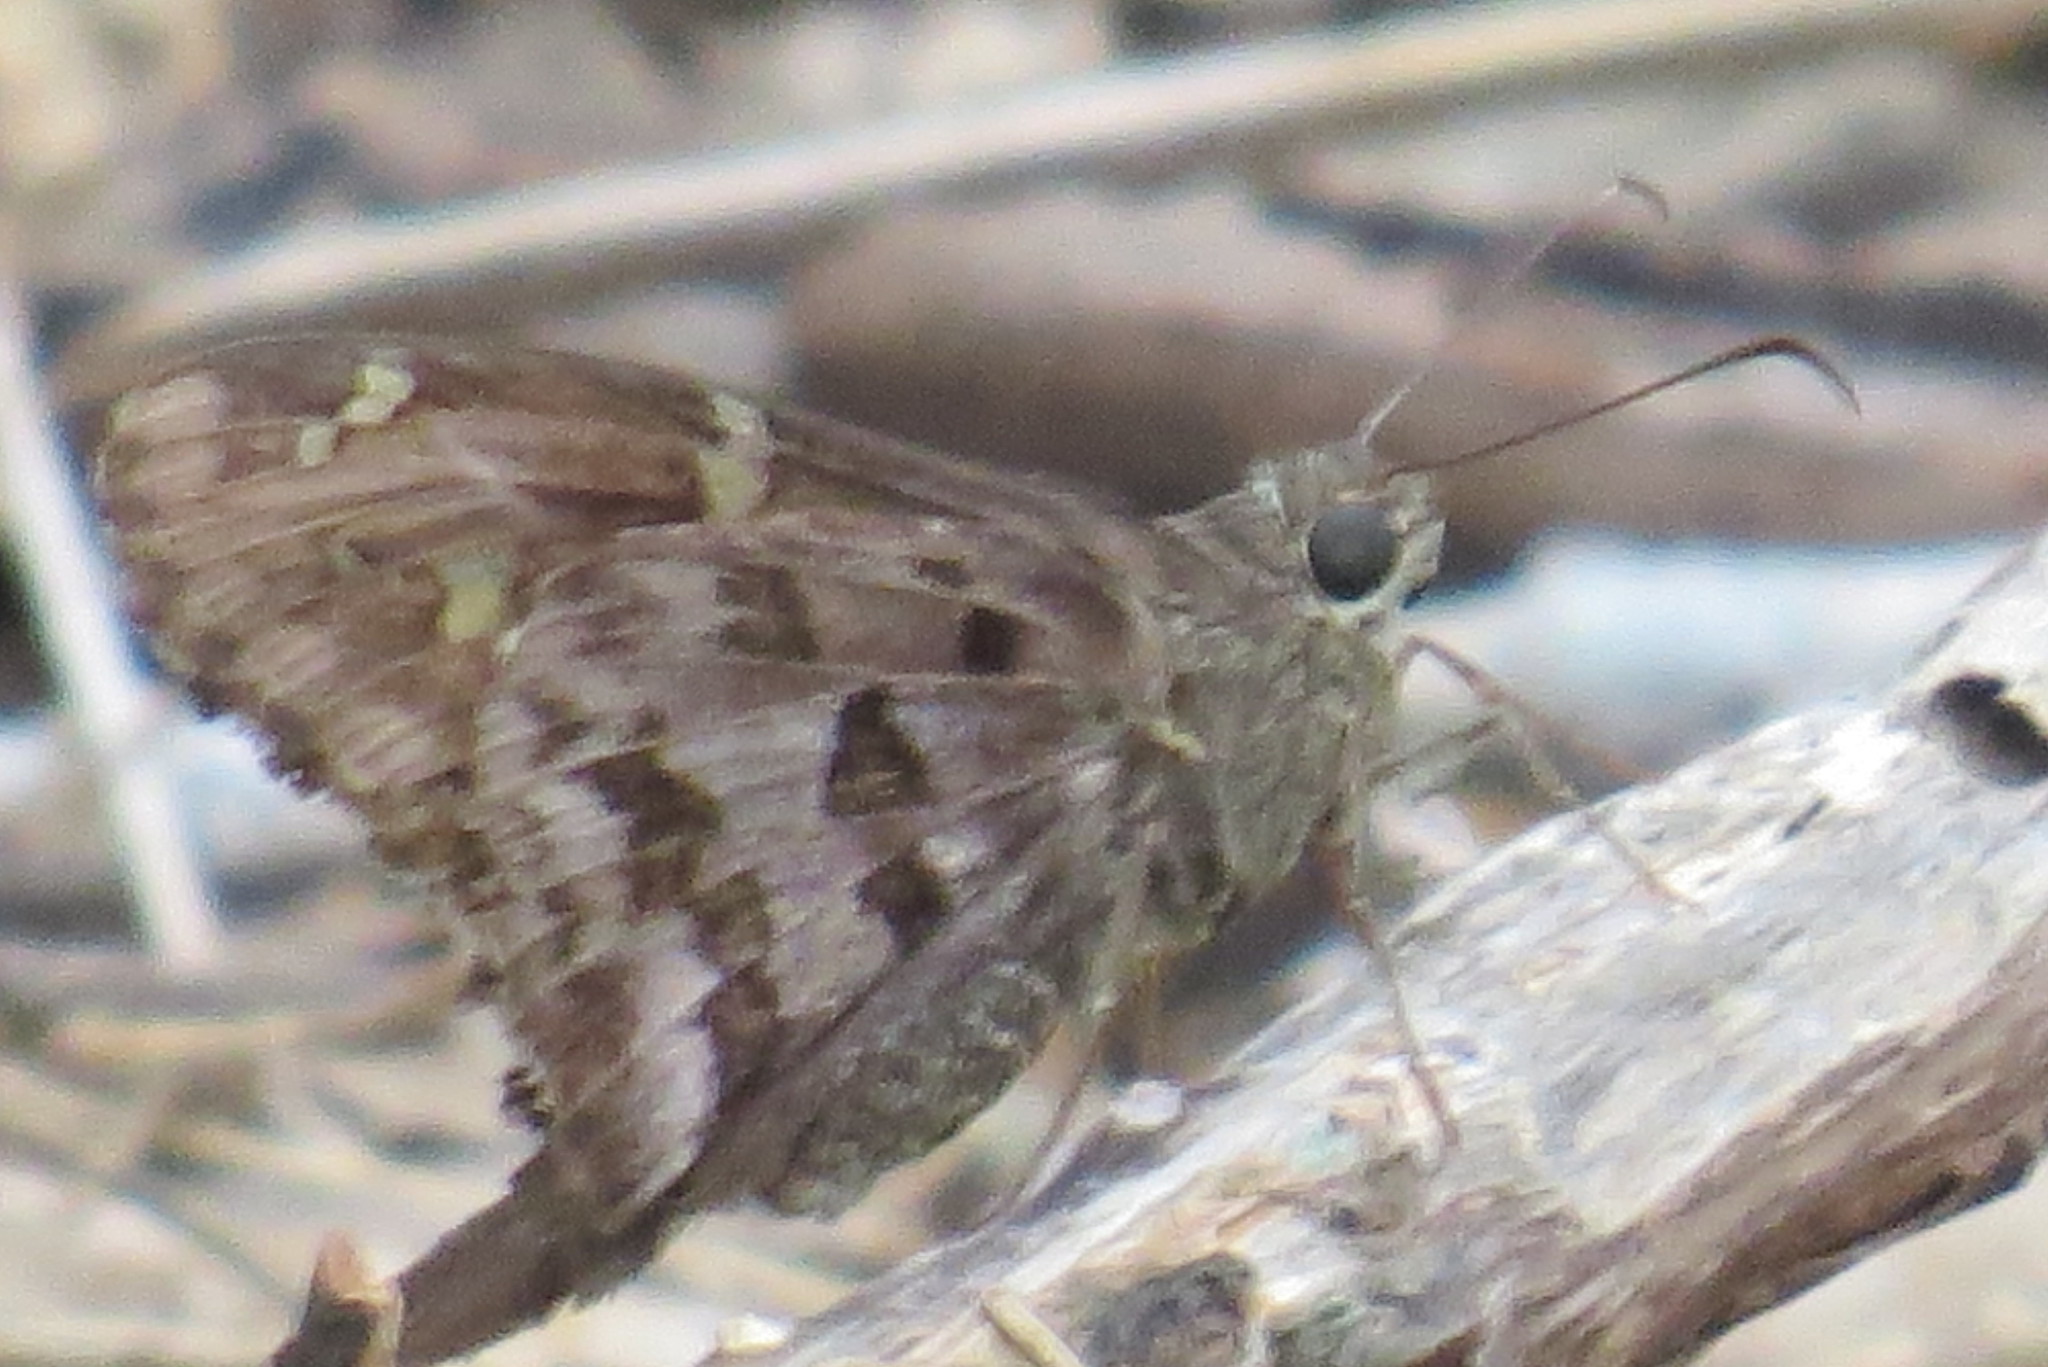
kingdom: Animalia
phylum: Arthropoda
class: Insecta
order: Lepidoptera
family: Hesperiidae
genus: Thorybes
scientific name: Thorybes
